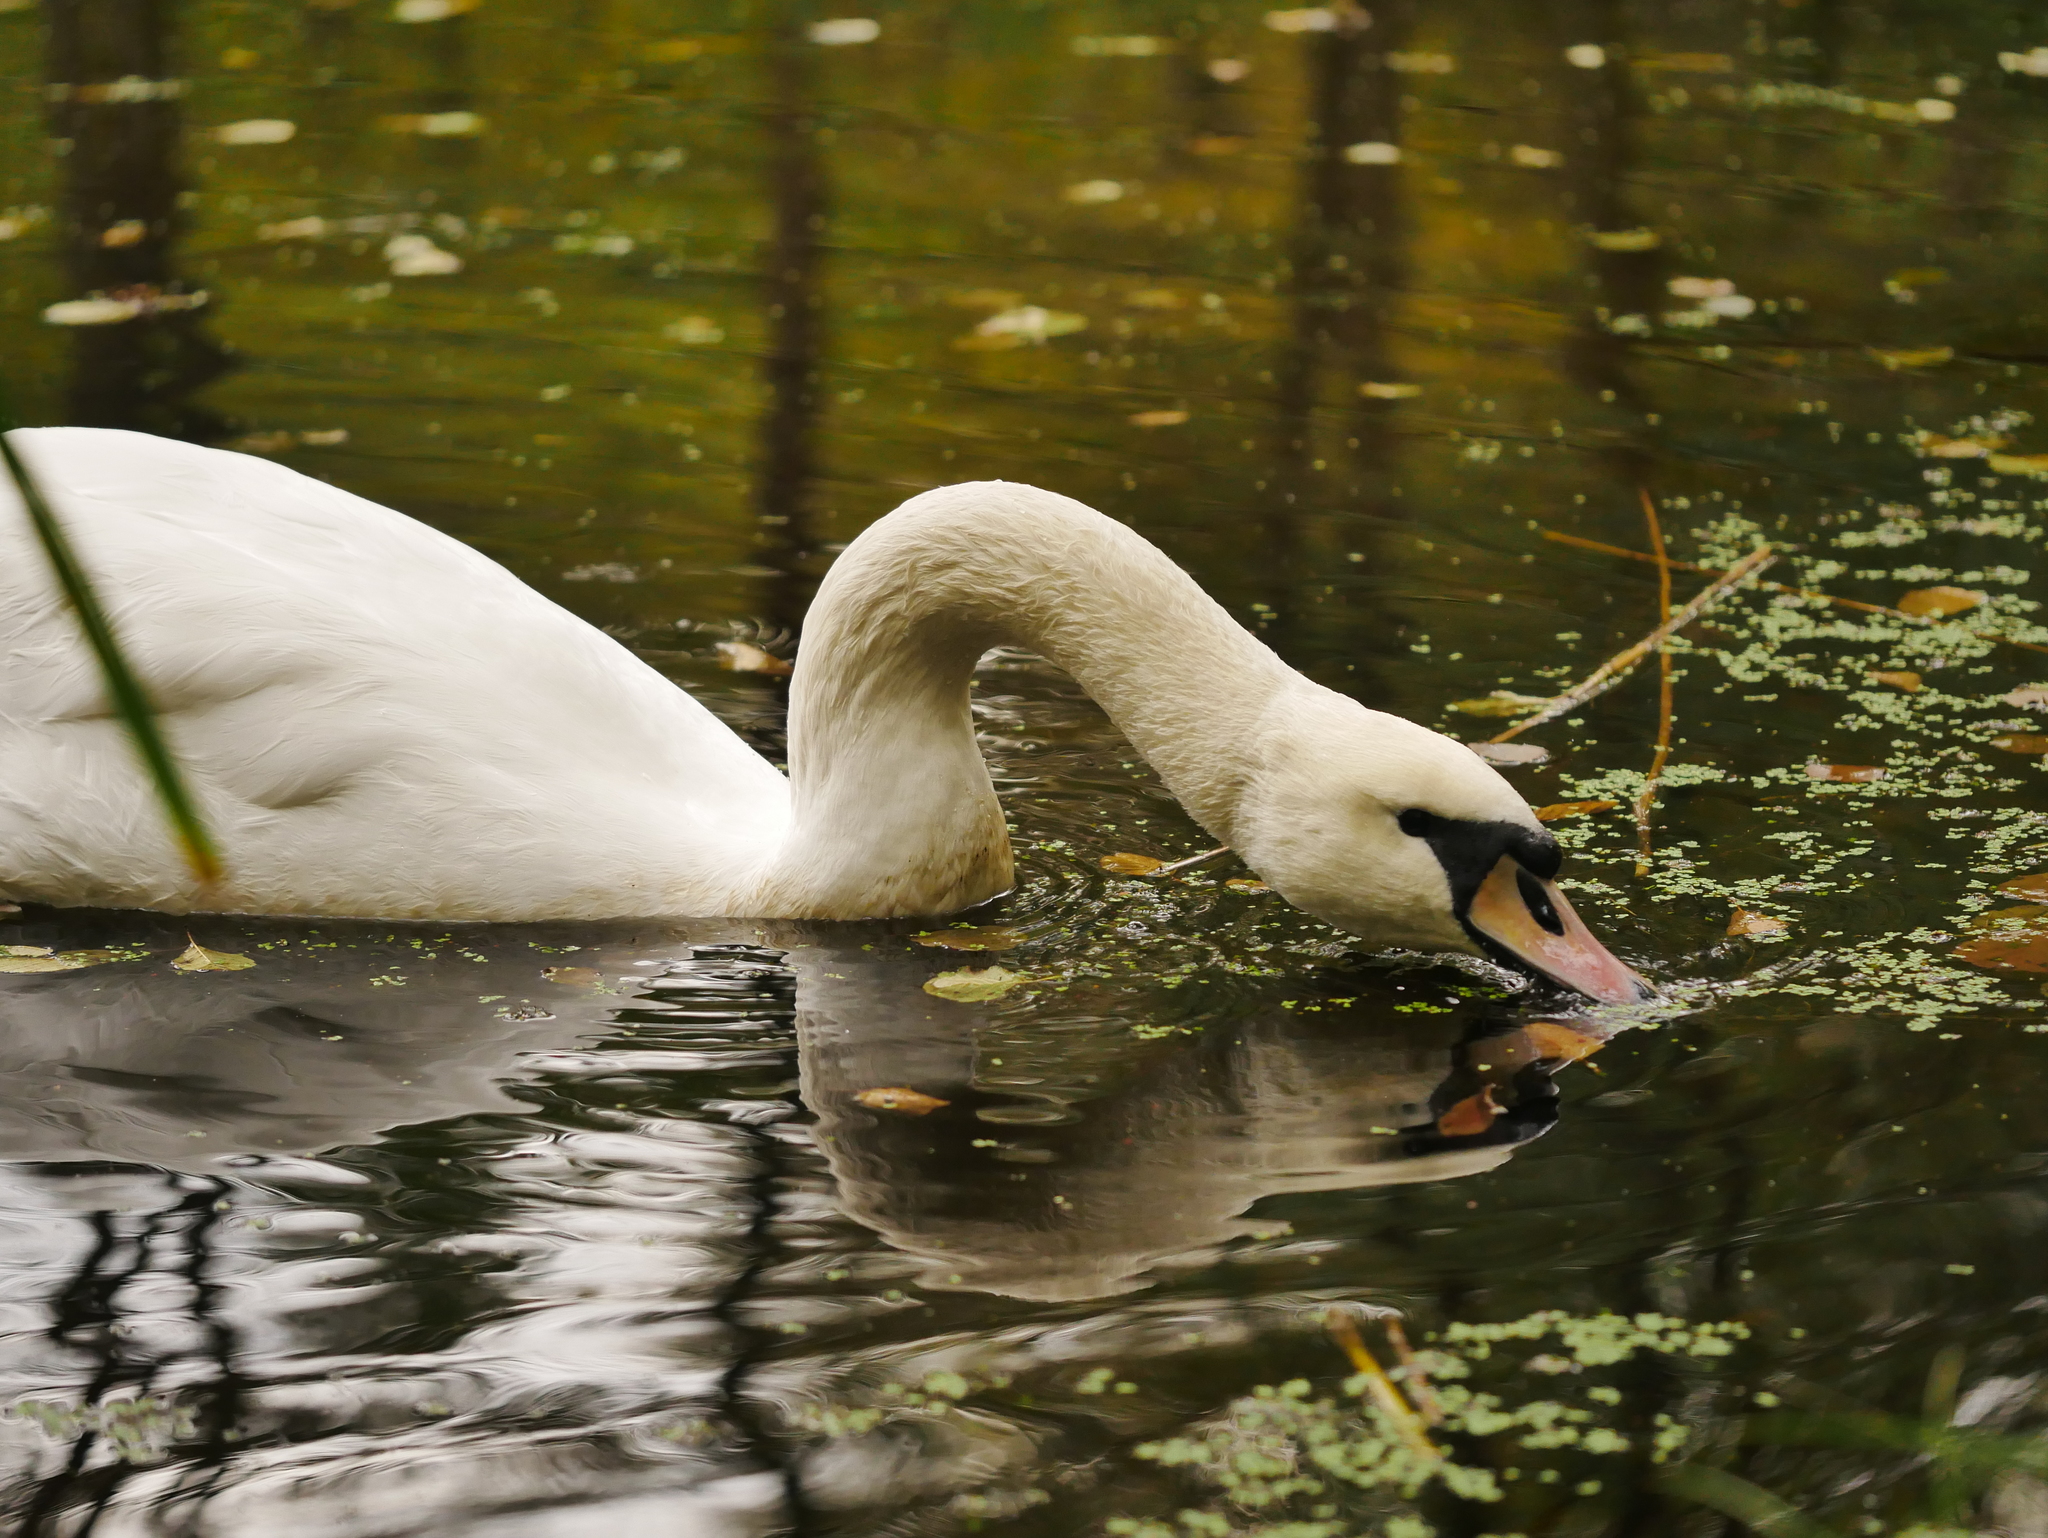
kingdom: Animalia
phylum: Chordata
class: Aves
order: Anseriformes
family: Anatidae
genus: Cygnus
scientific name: Cygnus olor
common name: Mute swan
